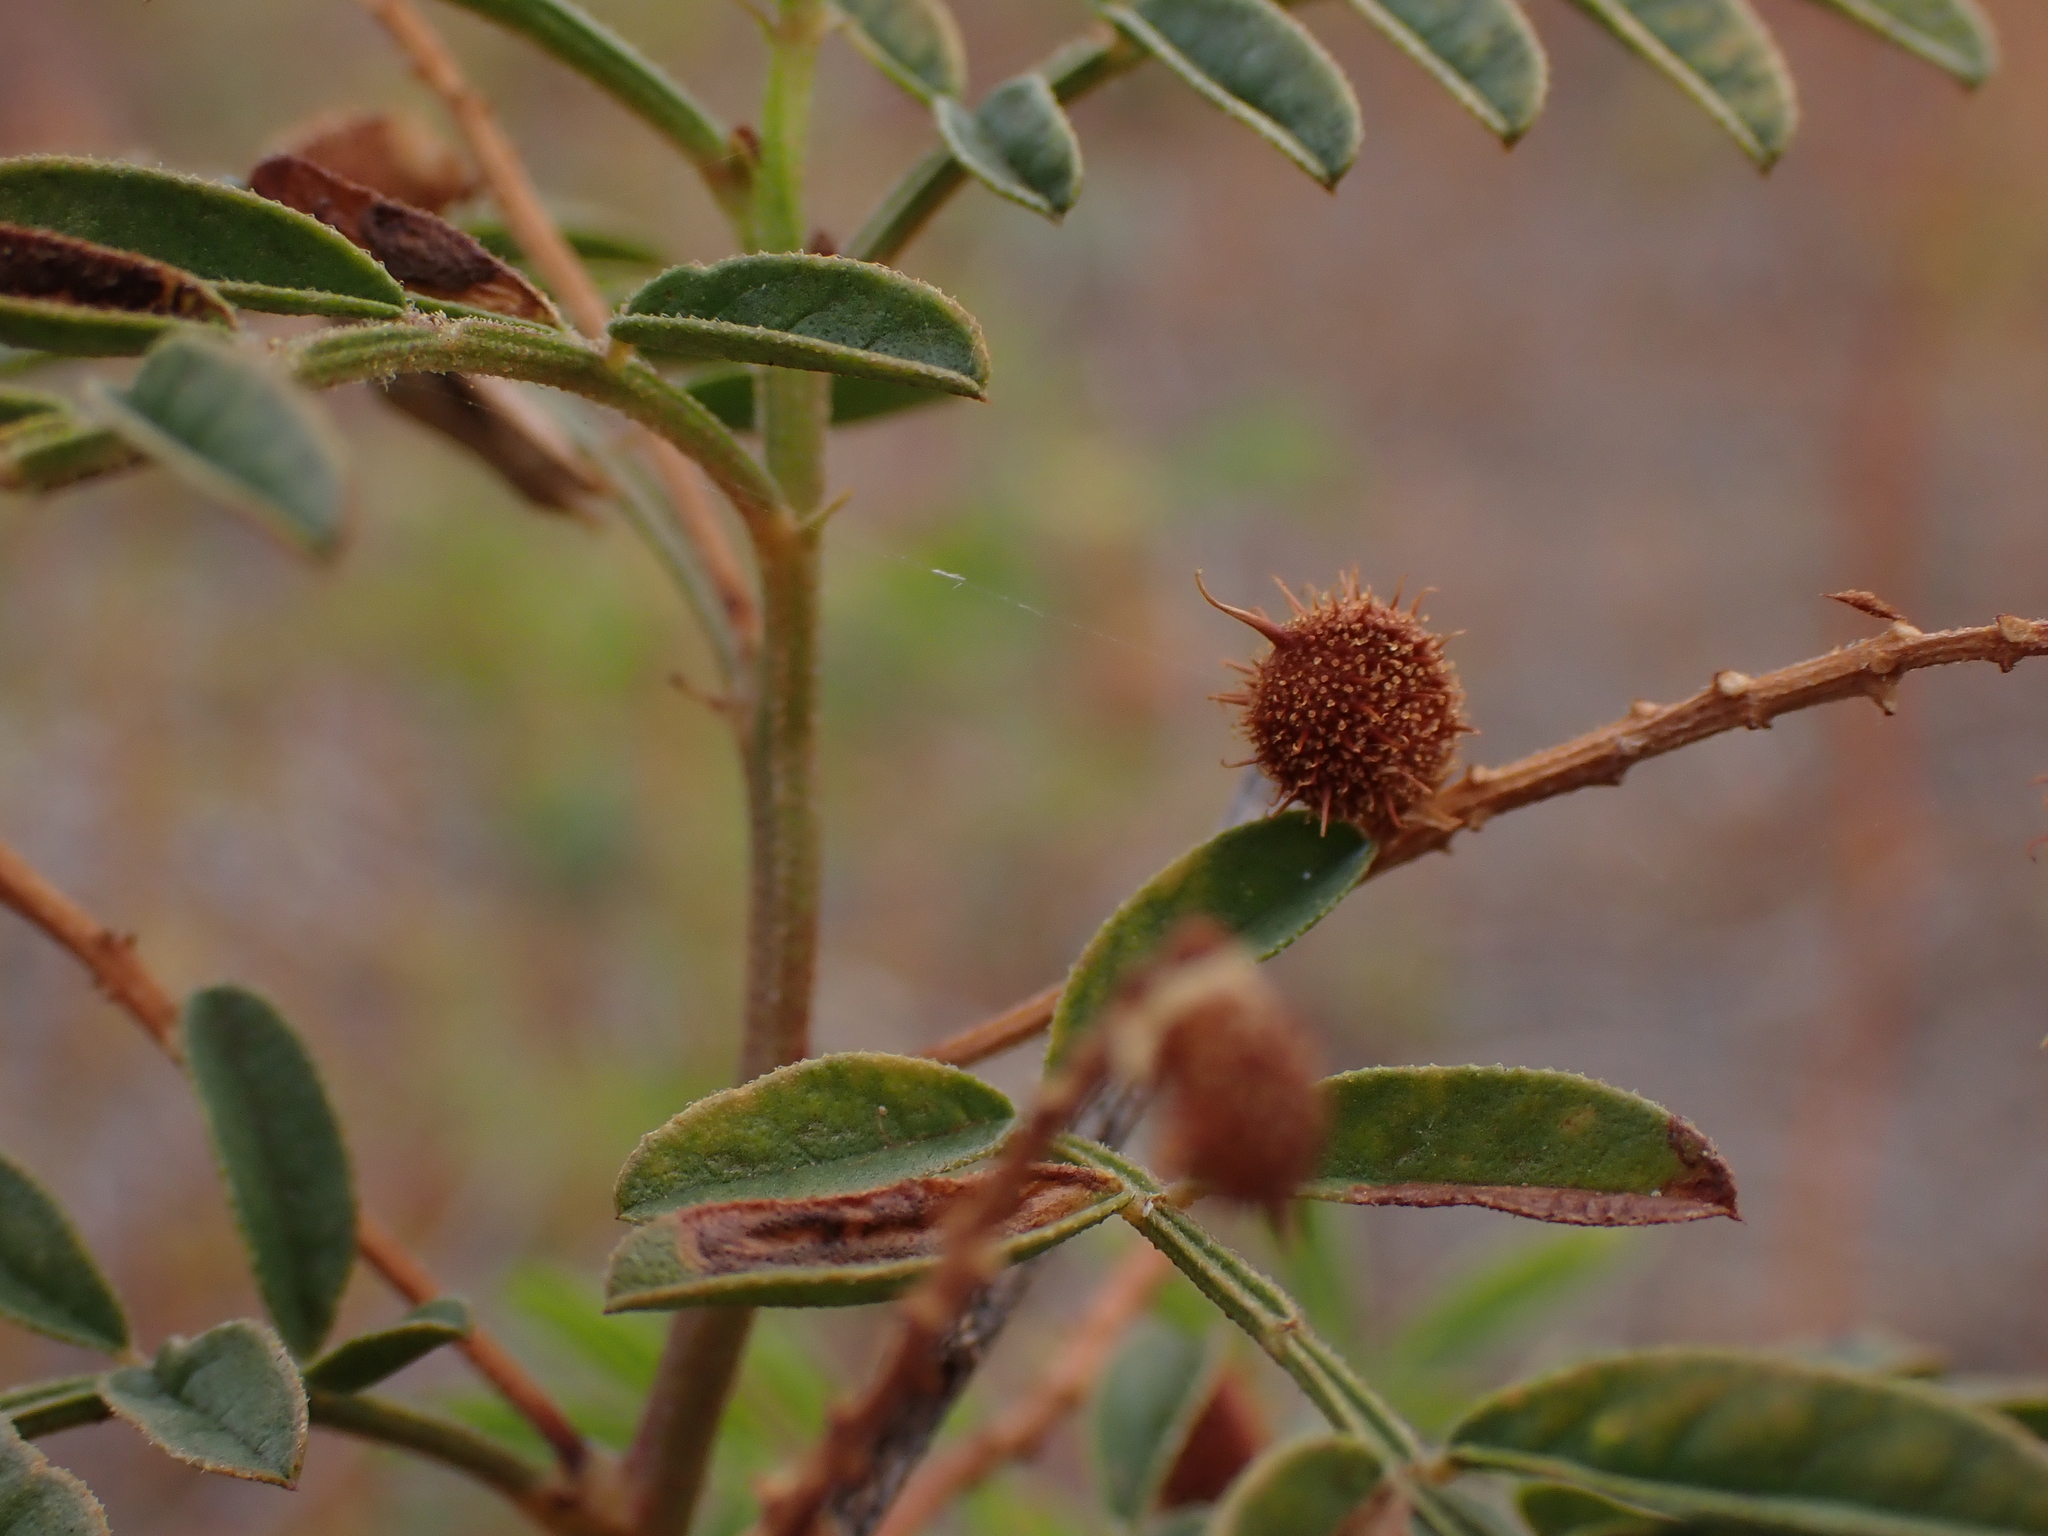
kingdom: Plantae
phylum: Tracheophyta
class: Magnoliopsida
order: Fabales
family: Fabaceae
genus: Glycyrrhiza
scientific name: Glycyrrhiza acanthocarpa
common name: Southern liquorice
